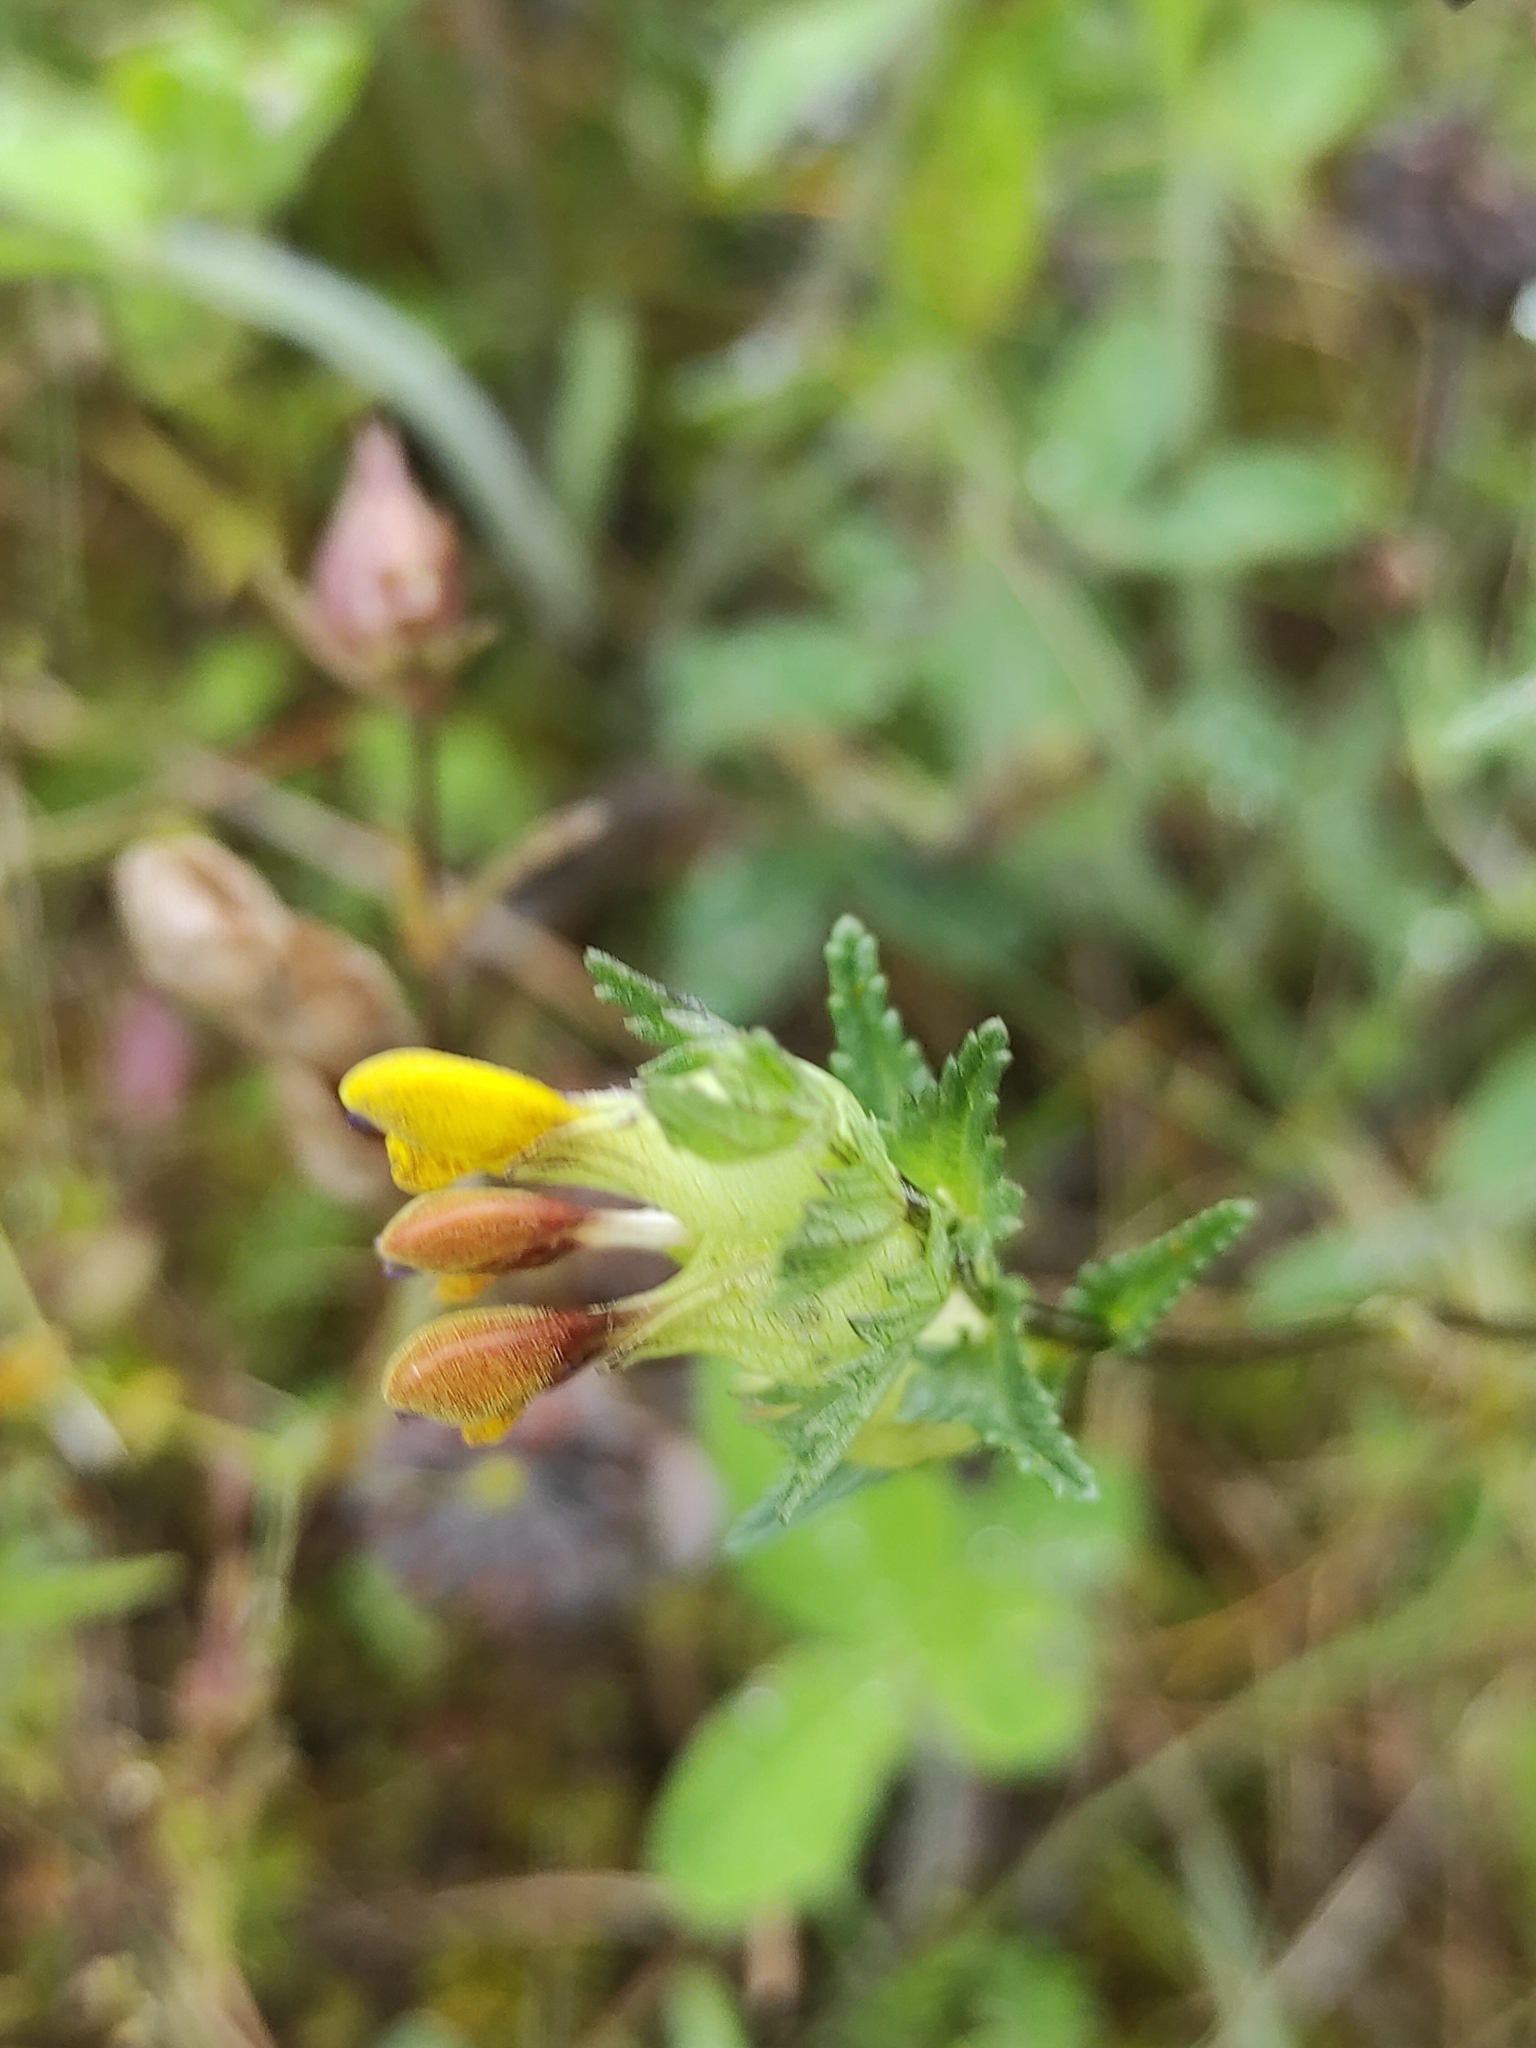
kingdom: Plantae
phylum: Tracheophyta
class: Magnoliopsida
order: Lamiales
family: Orobanchaceae
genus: Rhinanthus
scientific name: Rhinanthus minor
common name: Yellow-rattle
